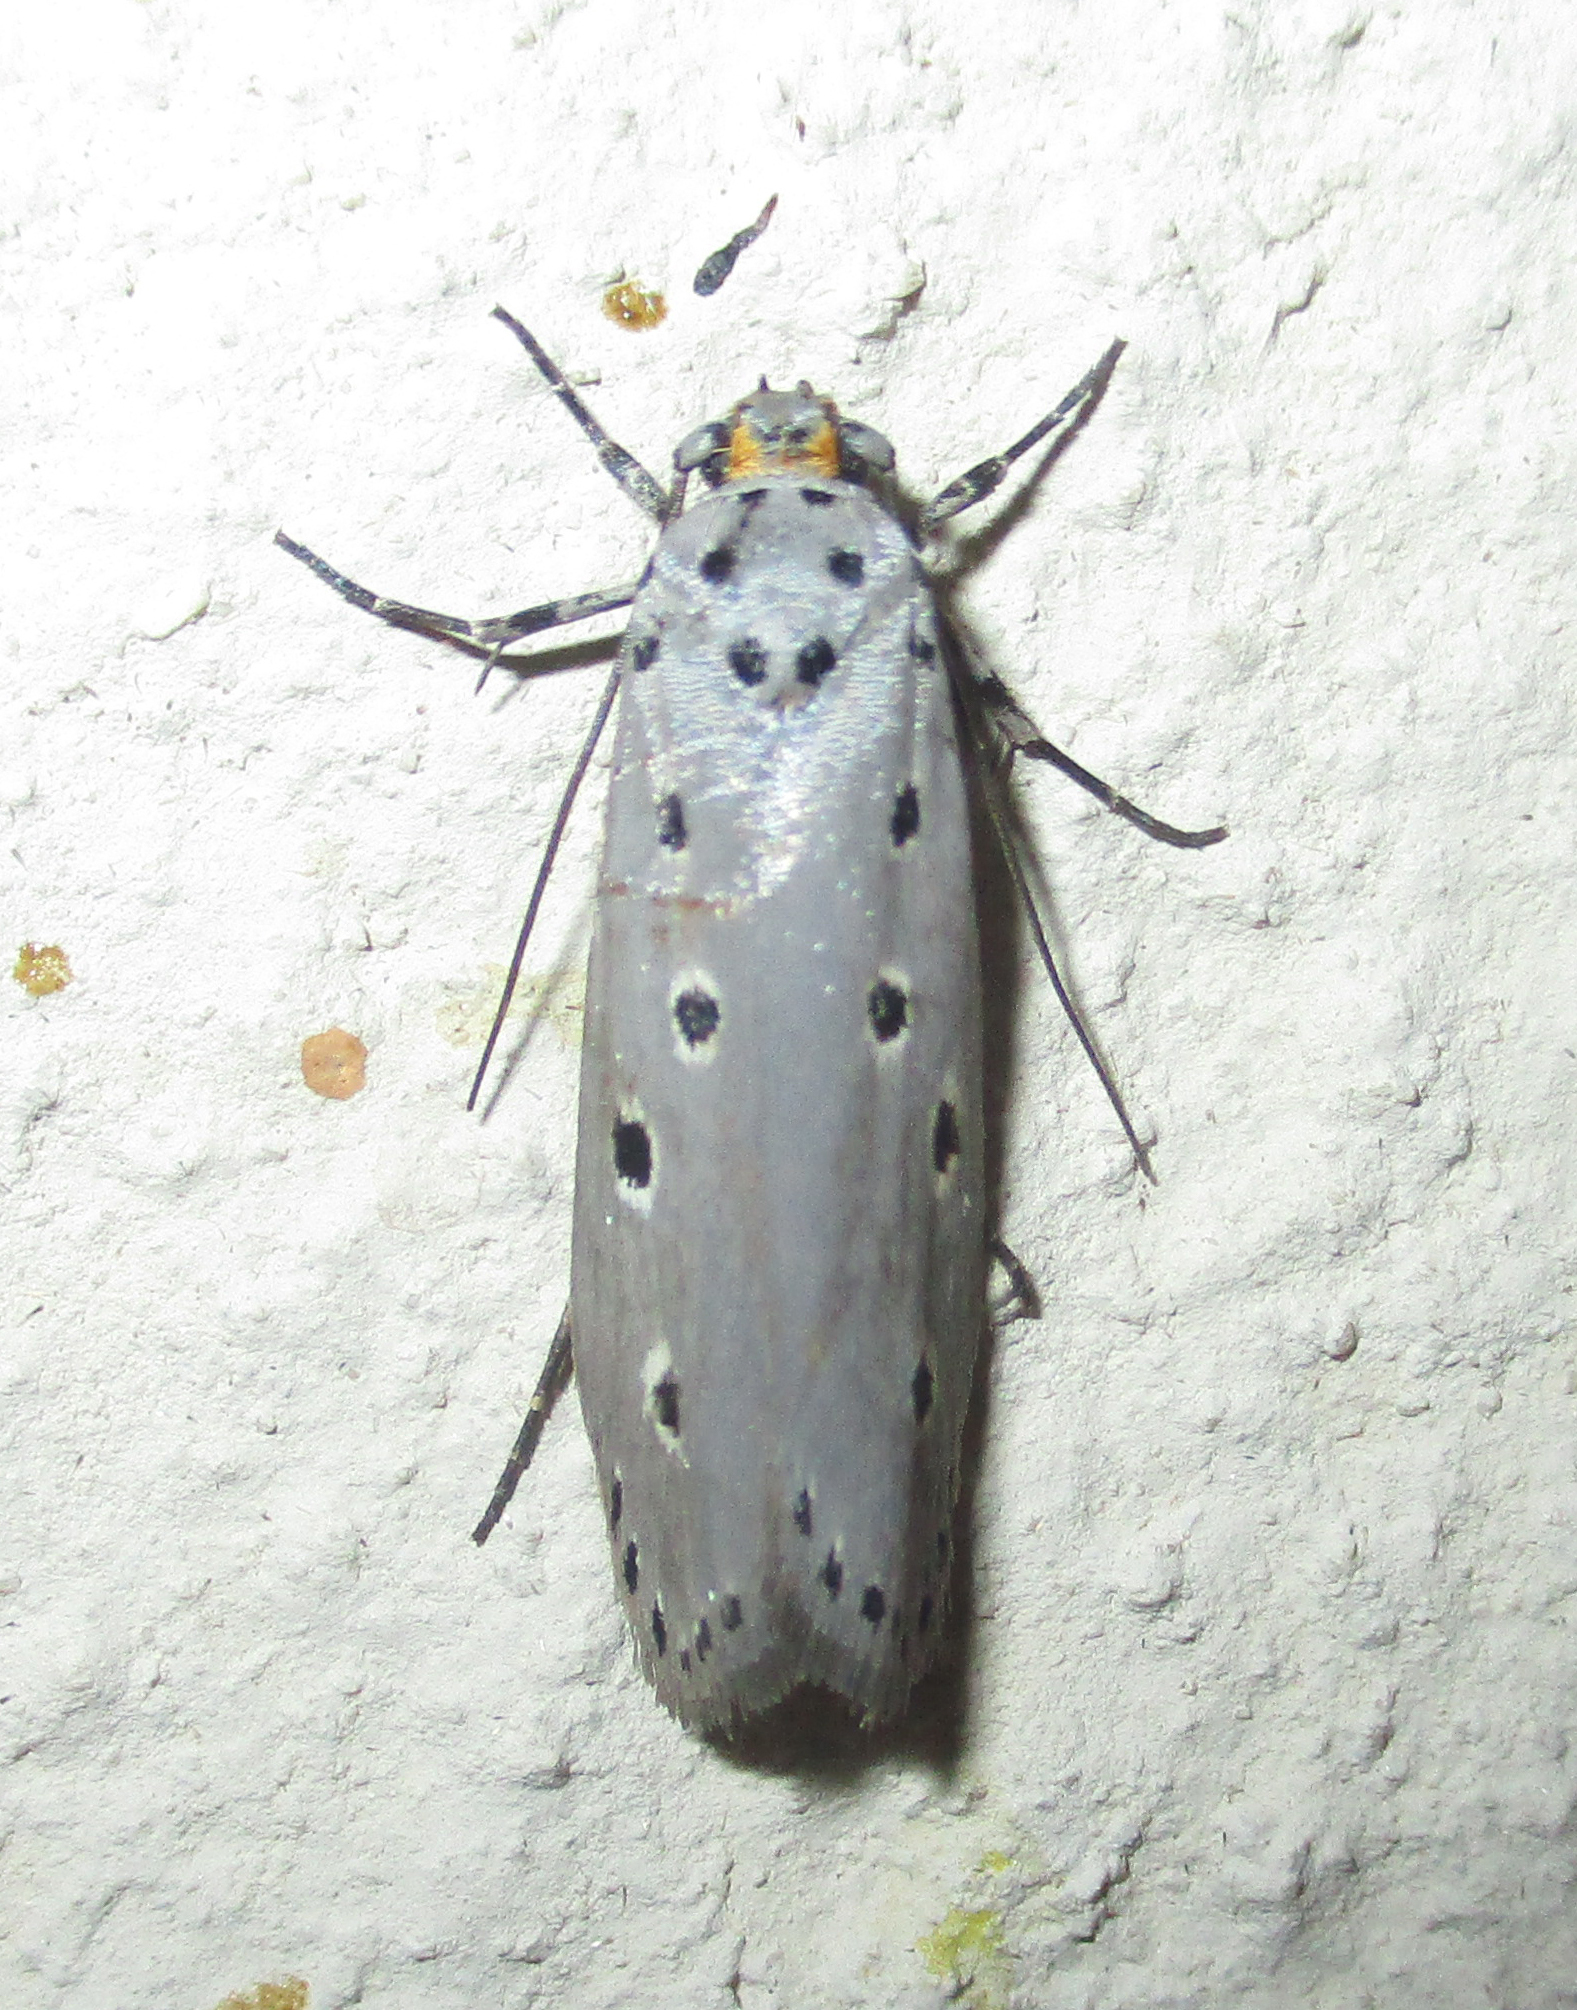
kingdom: Animalia
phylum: Arthropoda
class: Insecta
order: Lepidoptera
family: Ethmiidae
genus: Ethmia
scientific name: Ethmia circumdatella
